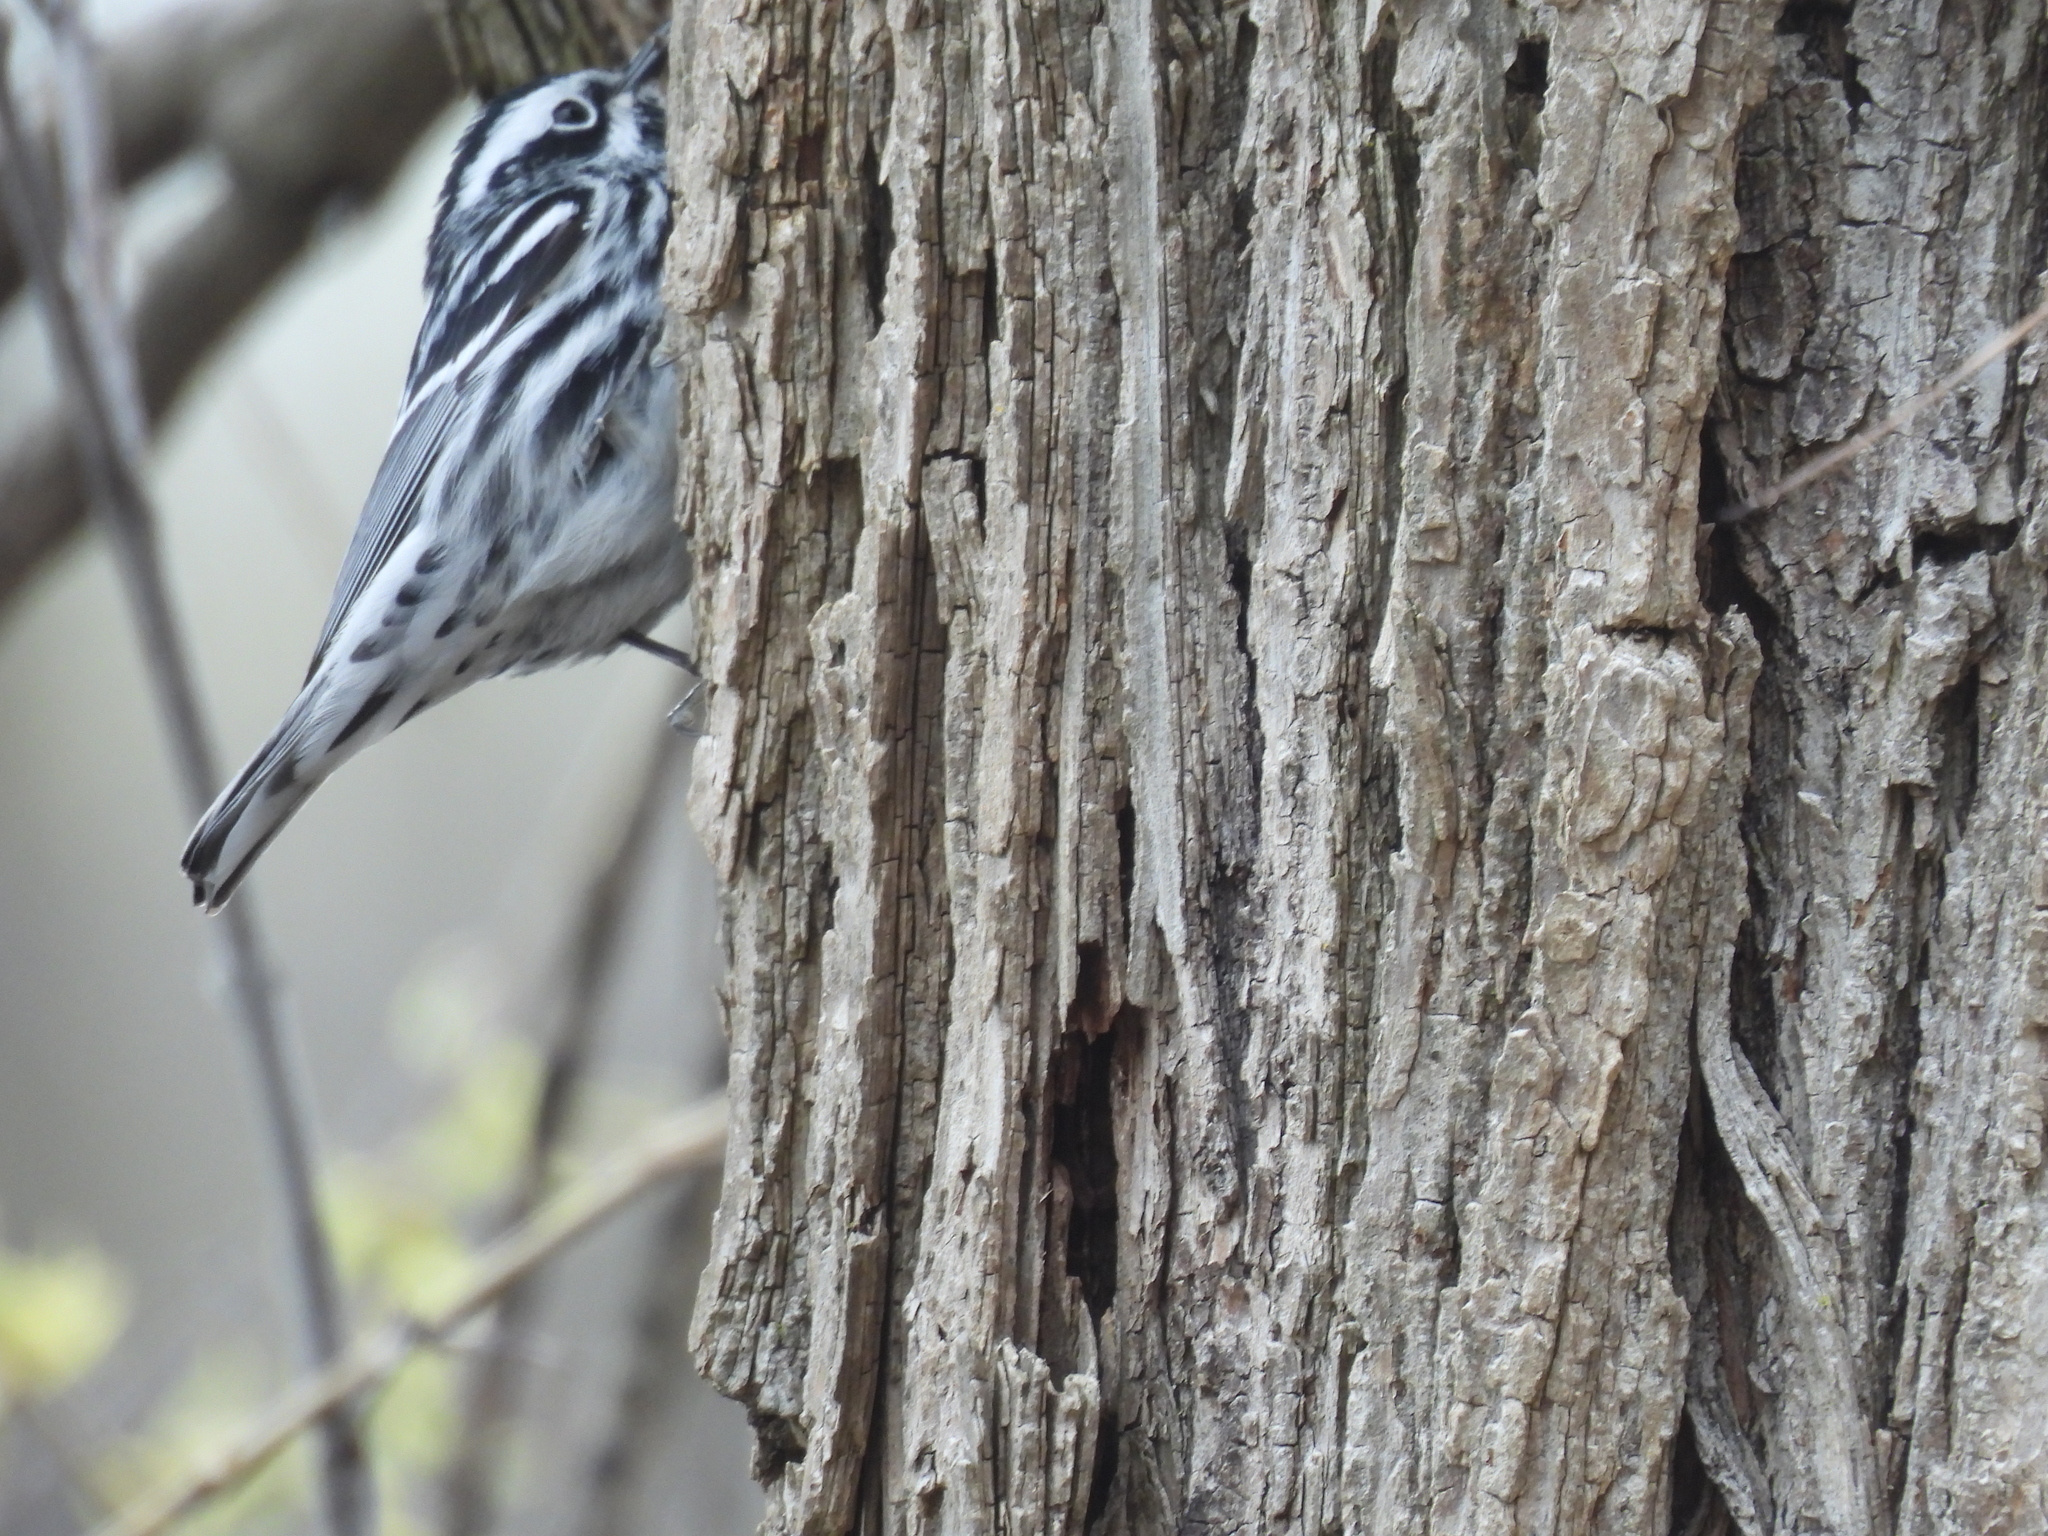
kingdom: Animalia
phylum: Chordata
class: Aves
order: Passeriformes
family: Parulidae
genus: Mniotilta
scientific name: Mniotilta varia
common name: Black-and-white warbler
